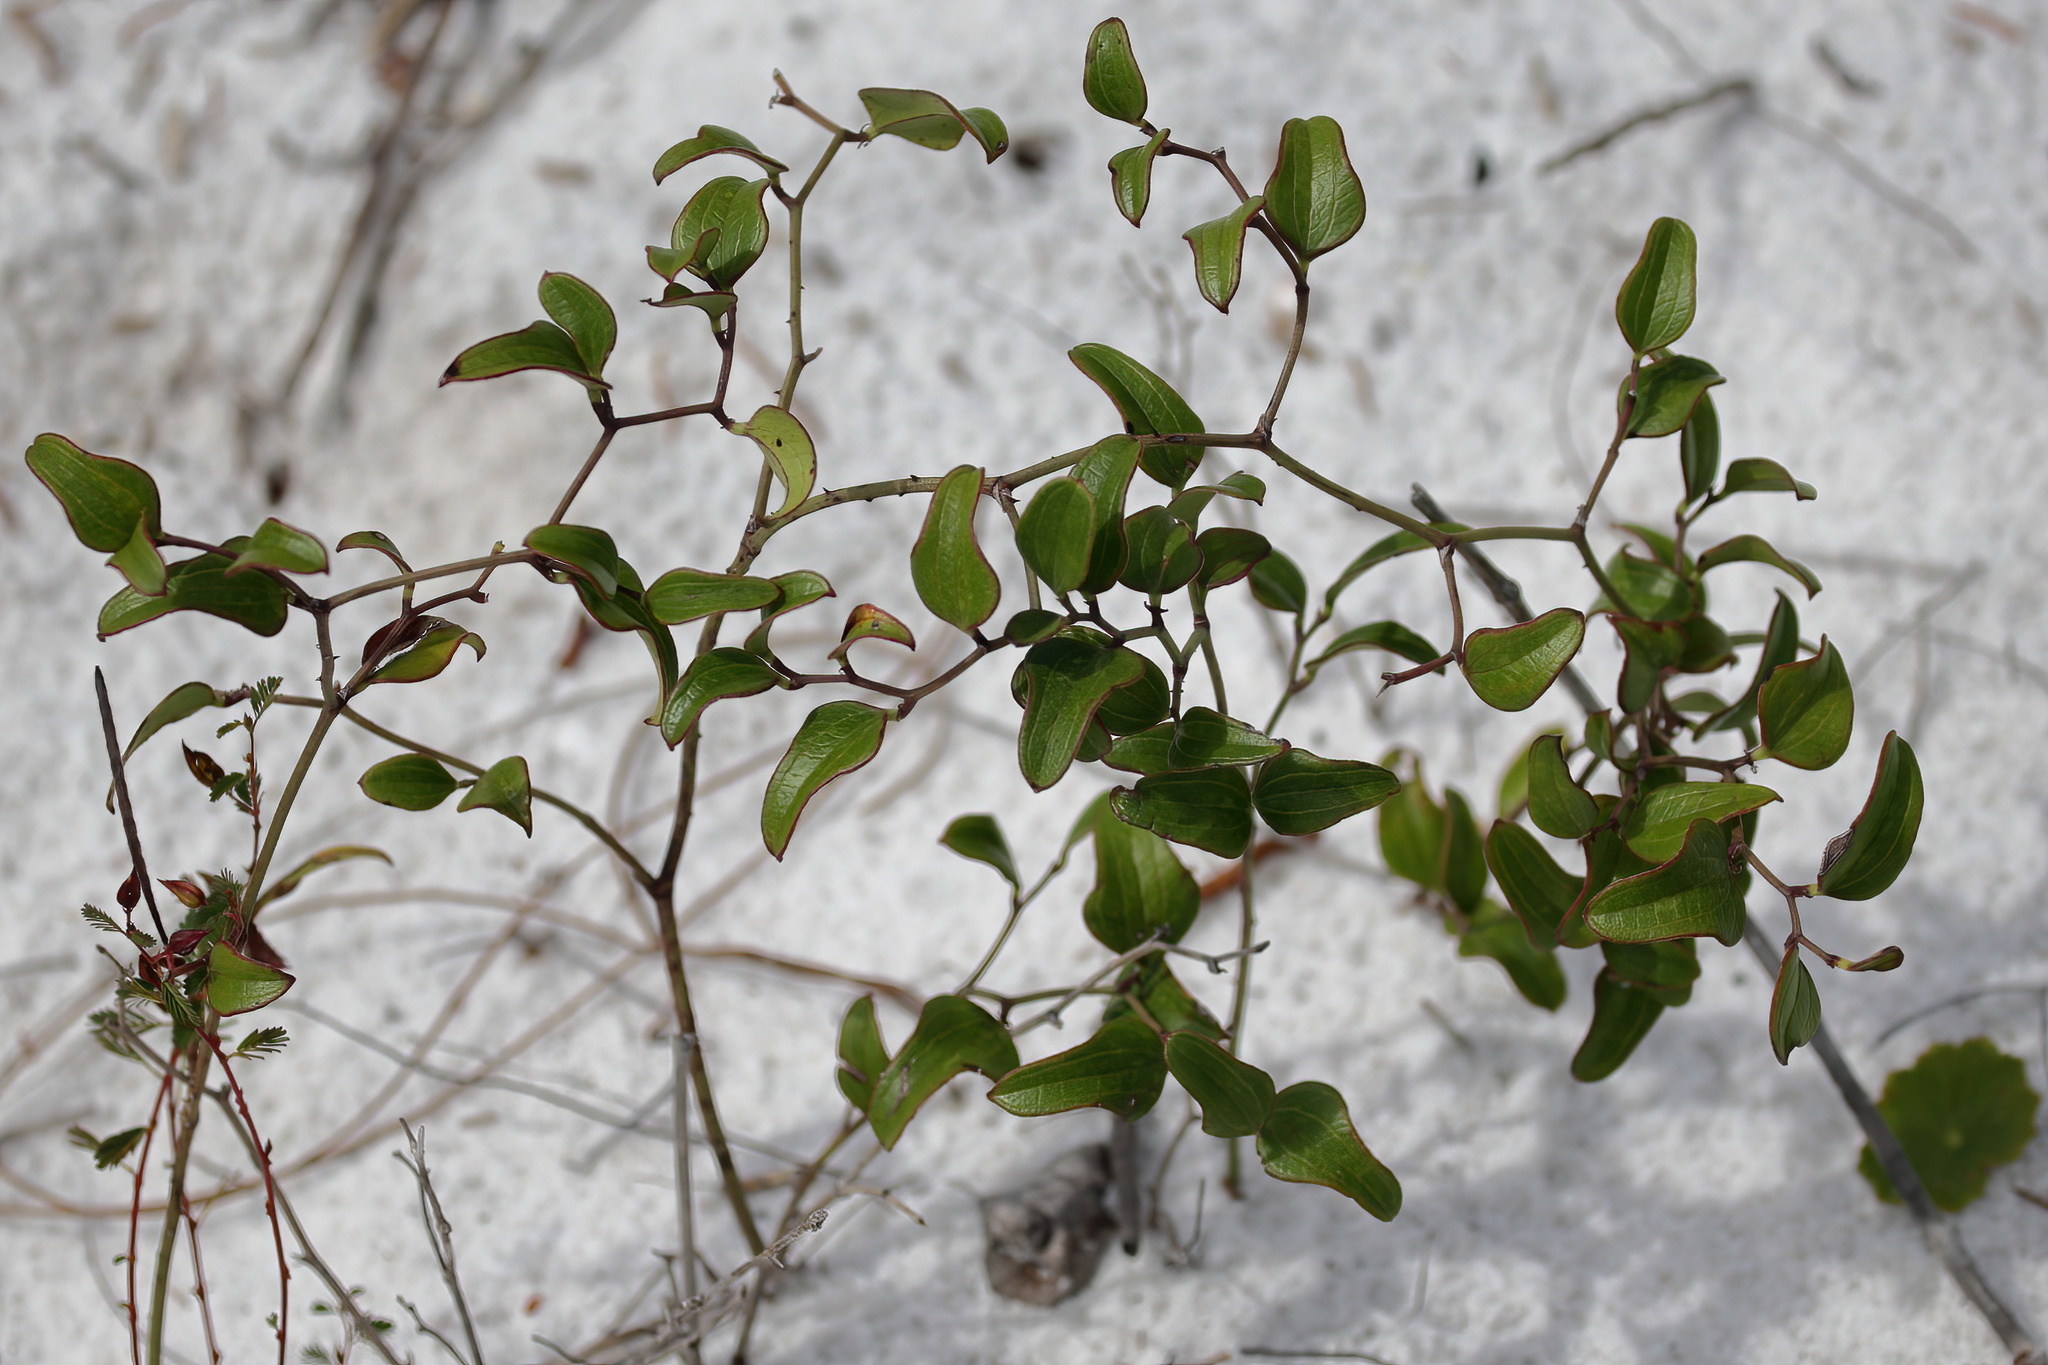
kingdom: Plantae
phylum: Tracheophyta
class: Liliopsida
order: Liliales
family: Smilacaceae
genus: Smilax
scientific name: Smilax auriculata
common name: Wild bamboo
